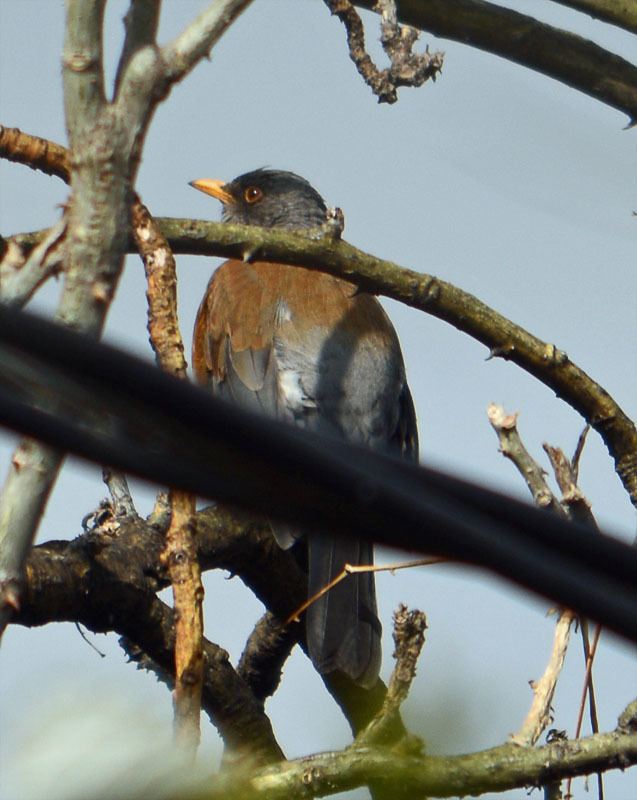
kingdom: Animalia
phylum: Chordata
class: Aves
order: Passeriformes
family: Turdidae
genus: Turdus
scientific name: Turdus rufopalliatus
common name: Rufous-backed robin
